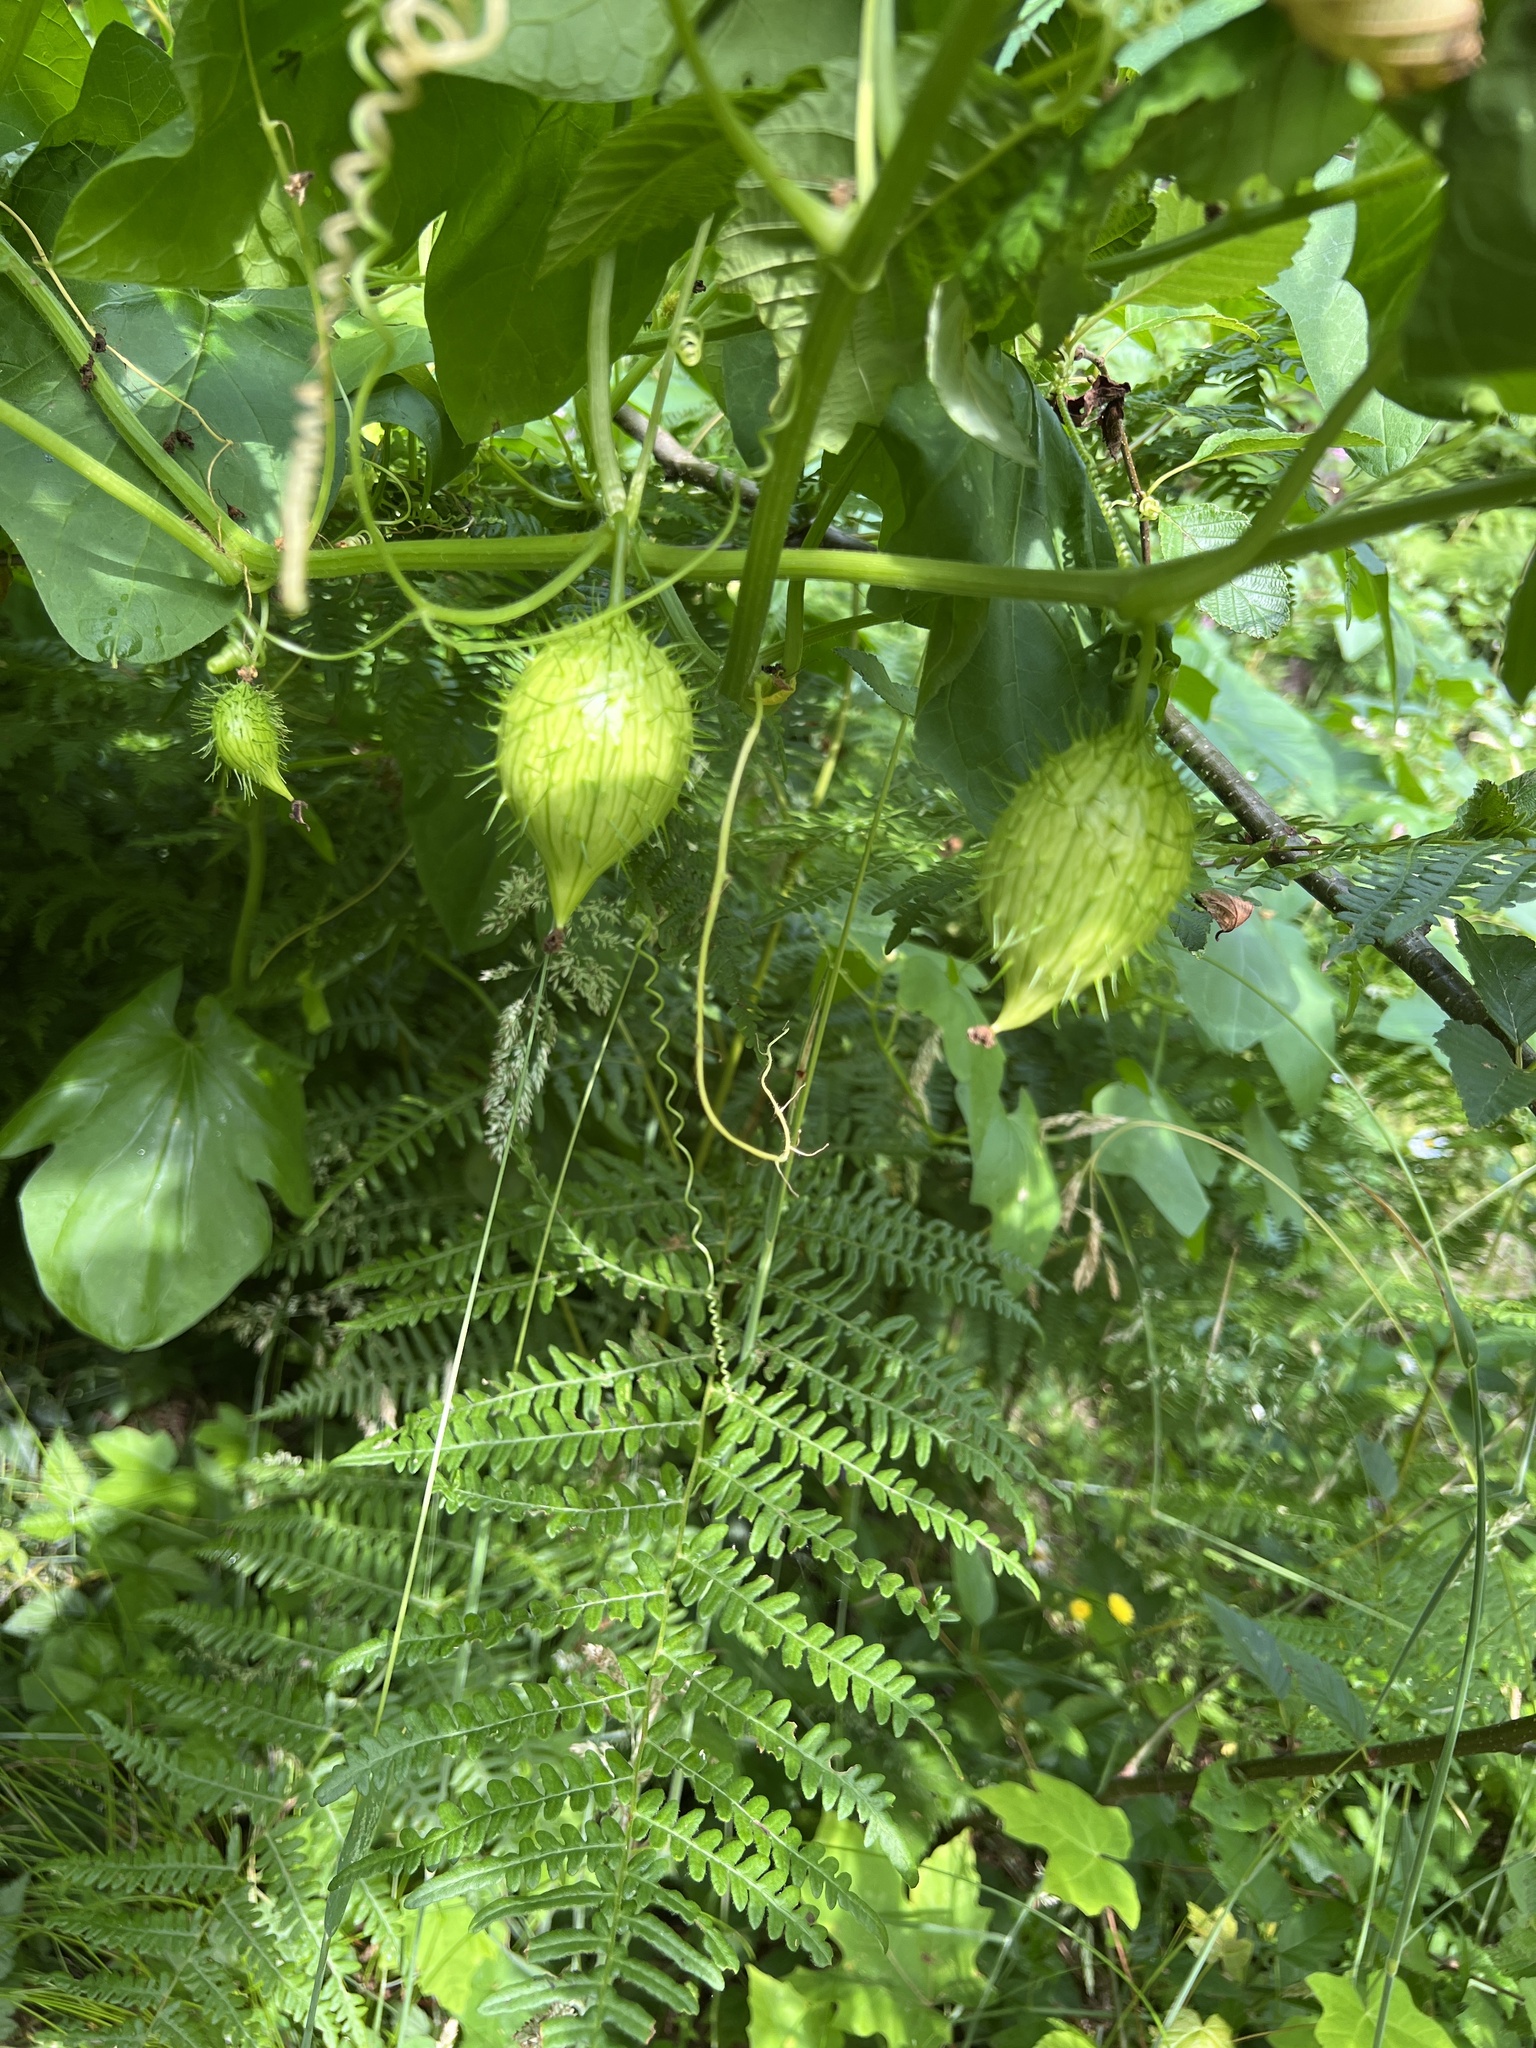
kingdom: Plantae
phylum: Tracheophyta
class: Magnoliopsida
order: Cucurbitales
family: Cucurbitaceae
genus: Marah
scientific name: Marah oregana
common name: Coastal manroot
